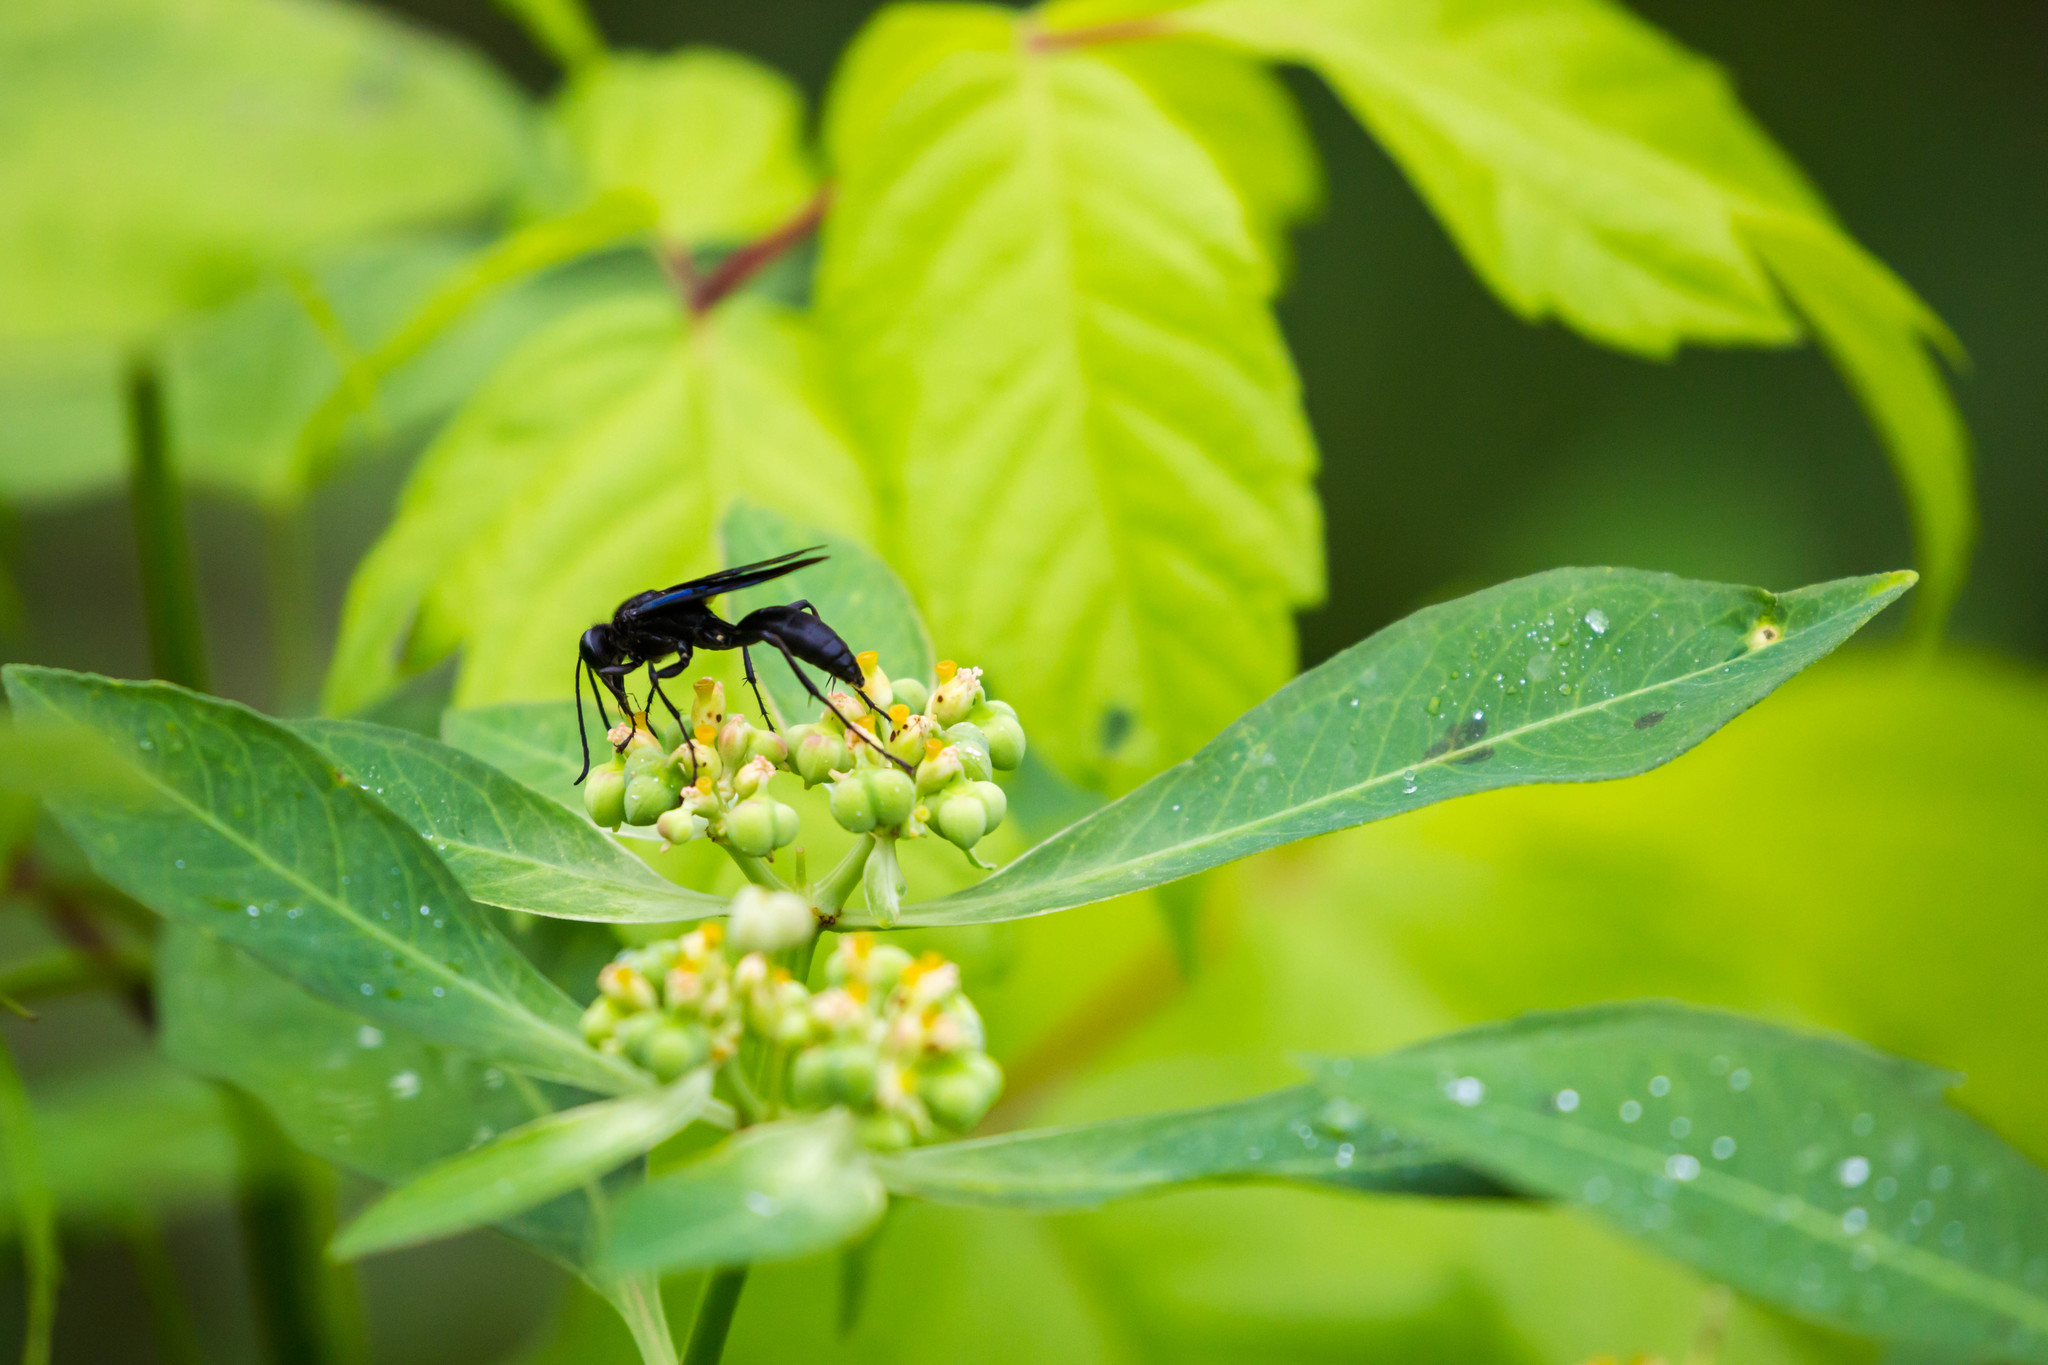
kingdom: Animalia
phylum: Arthropoda
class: Insecta
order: Hymenoptera
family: Sphecidae
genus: Sphex
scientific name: Sphex pensylvanicus
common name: Great black digger wasp
